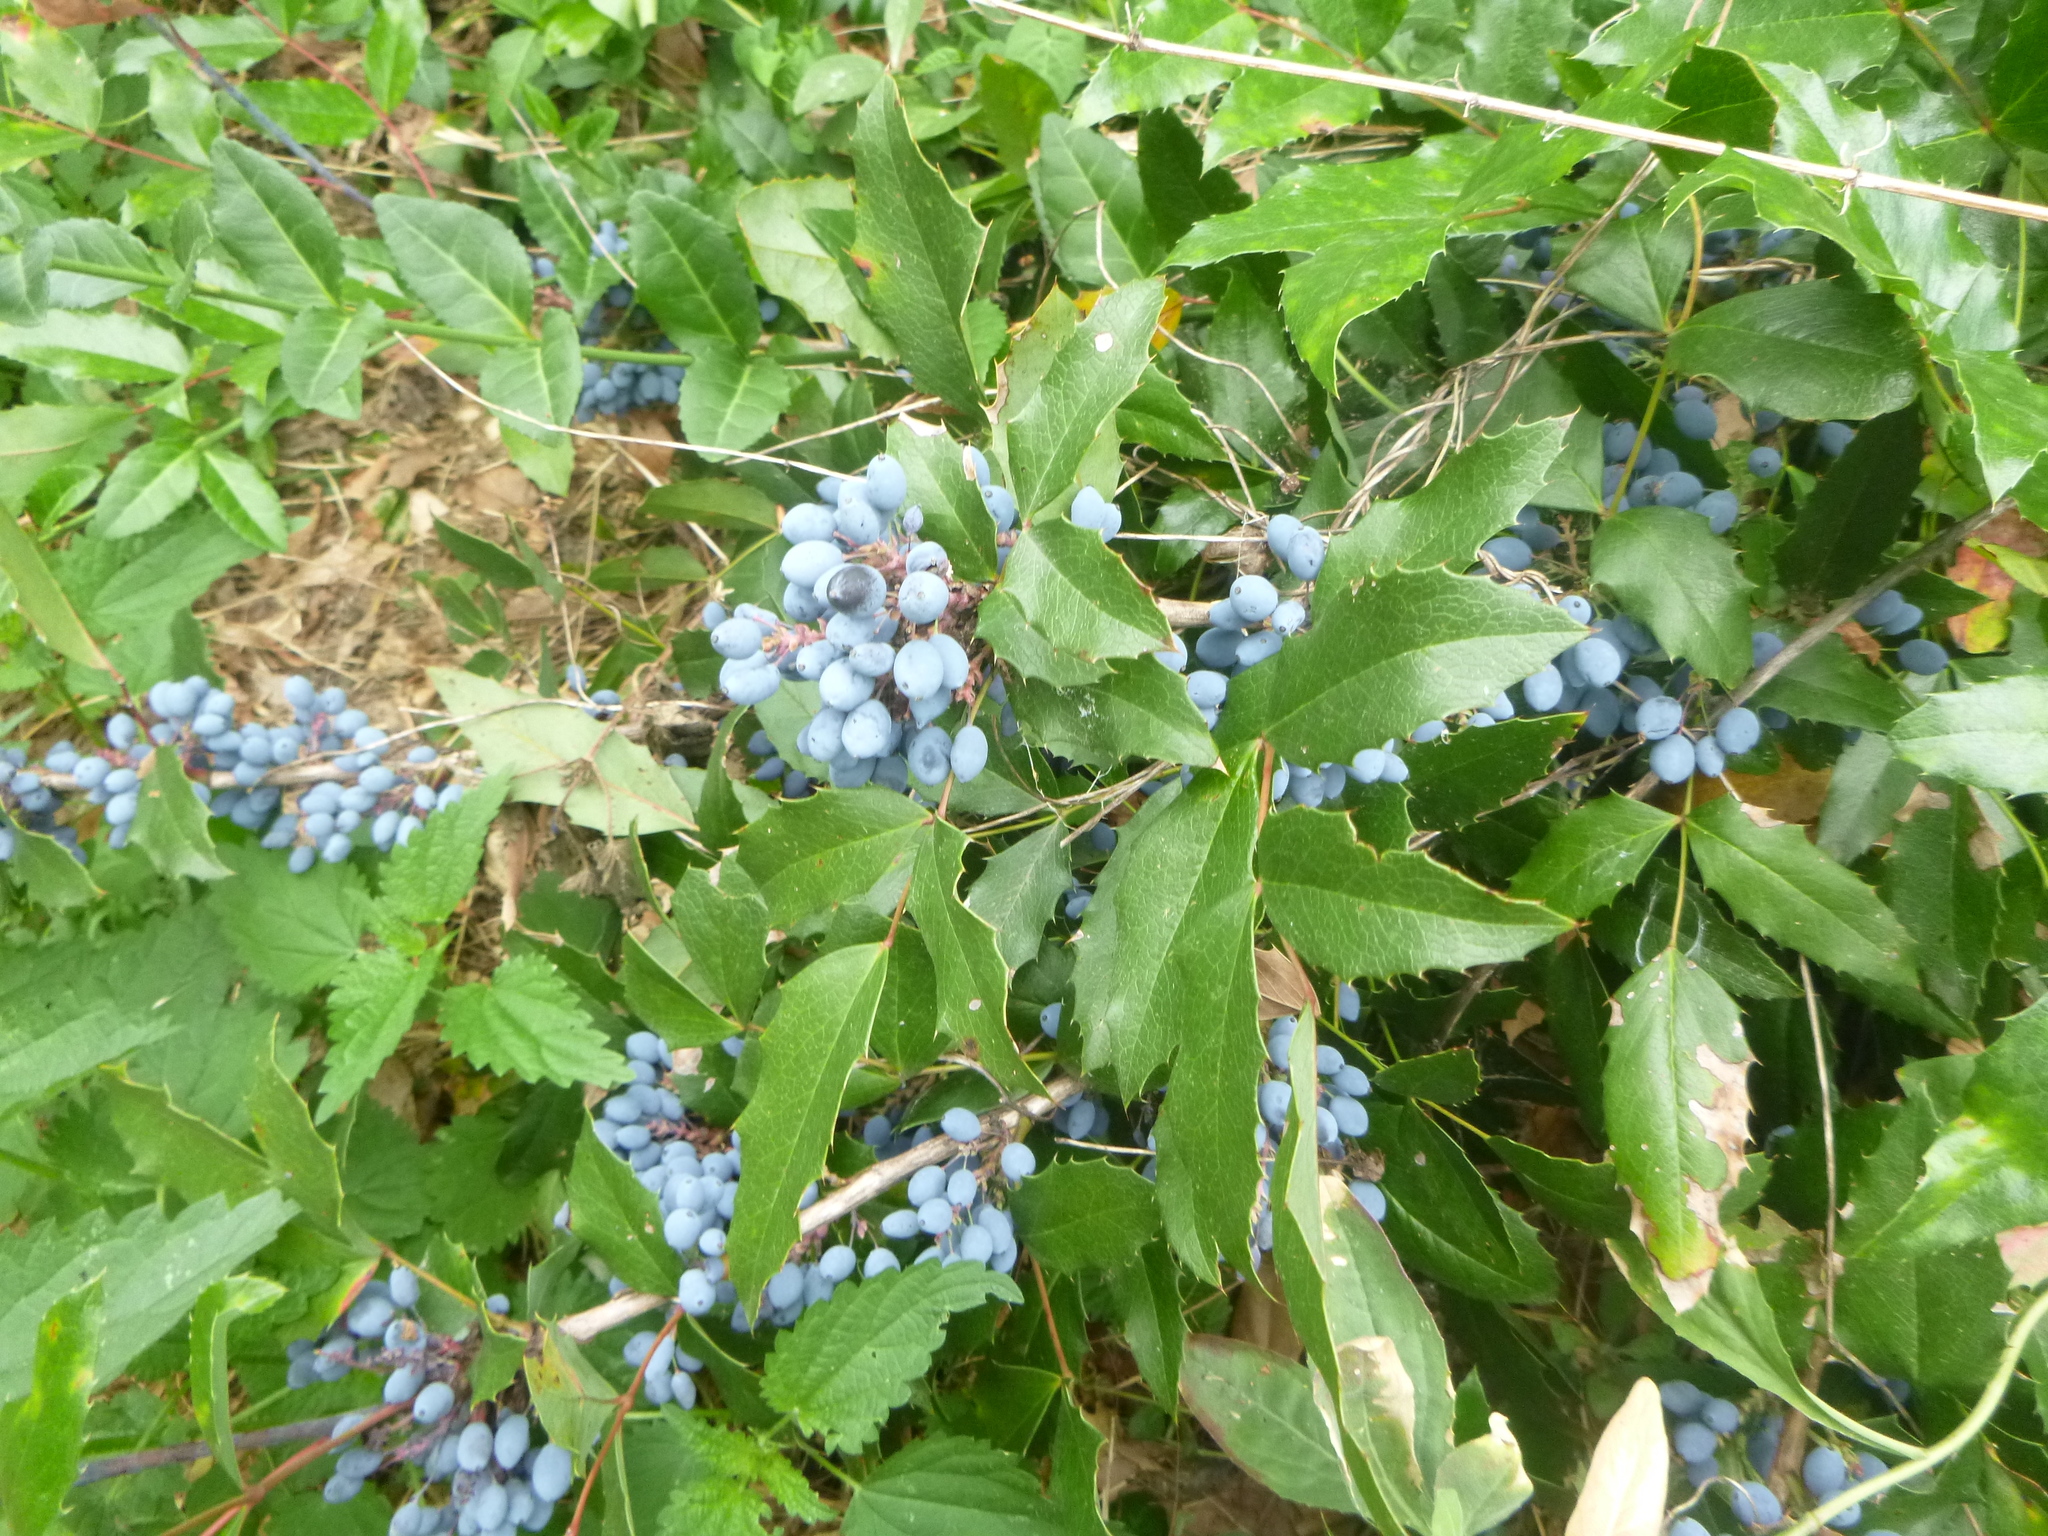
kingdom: Plantae
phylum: Tracheophyta
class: Magnoliopsida
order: Ranunculales
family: Berberidaceae
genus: Mahonia
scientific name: Mahonia aquifolium
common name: Oregon-grape
